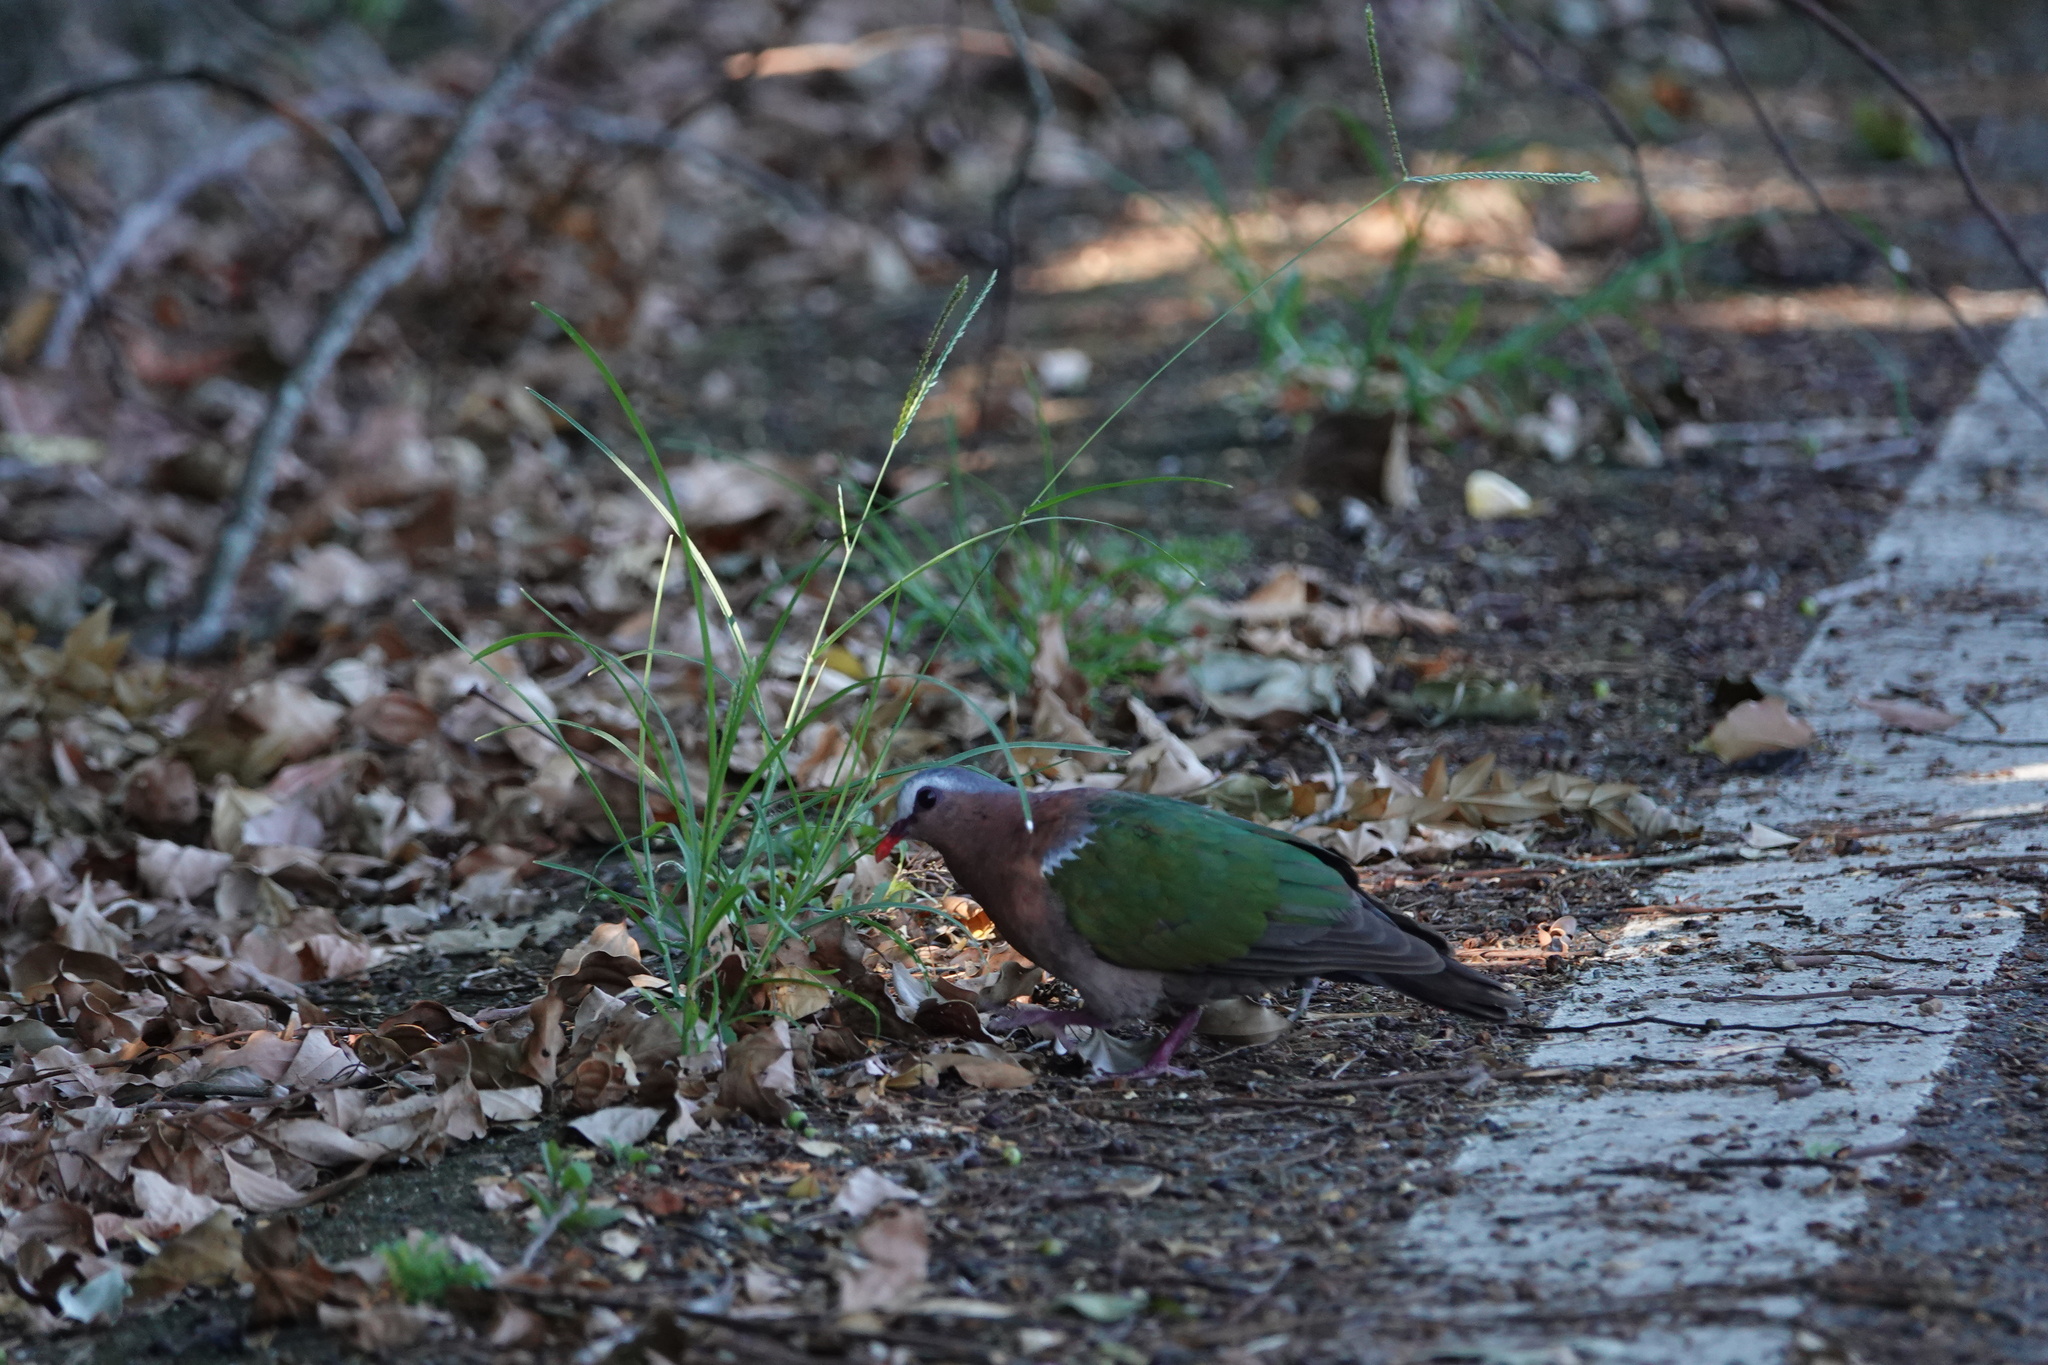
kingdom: Animalia
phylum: Chordata
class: Aves
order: Columbiformes
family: Columbidae
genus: Chalcophaps
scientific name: Chalcophaps indica
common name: Common emerald dove
